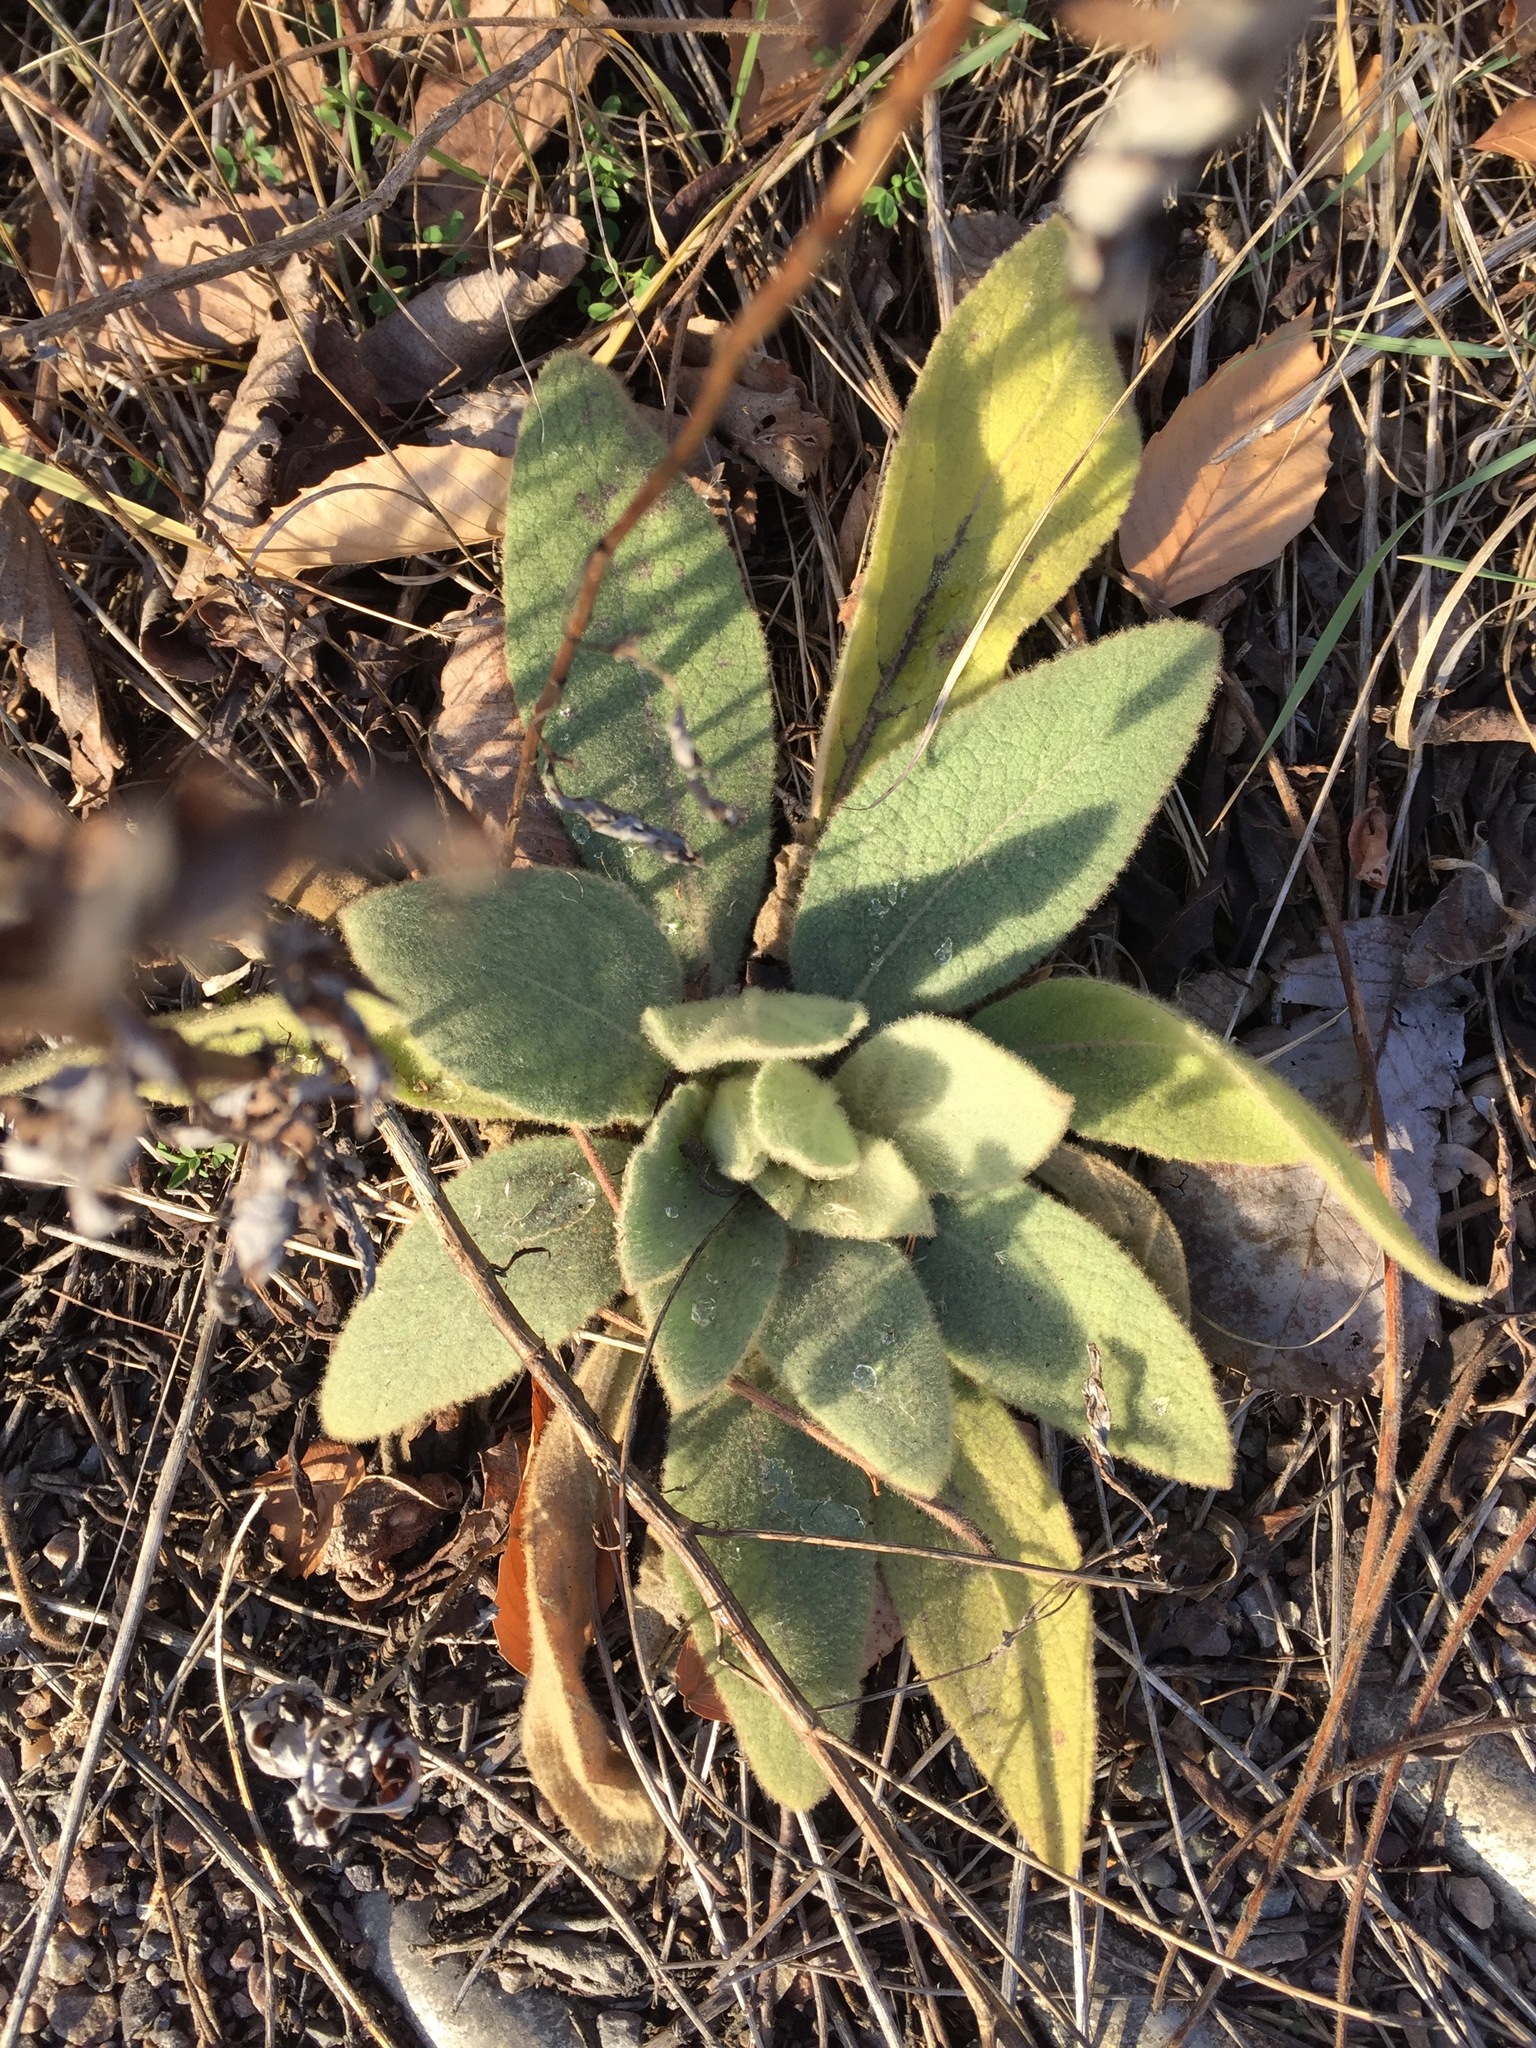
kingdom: Plantae
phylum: Tracheophyta
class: Magnoliopsida
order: Lamiales
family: Scrophulariaceae
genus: Verbascum
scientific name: Verbascum thapsus
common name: Common mullein
